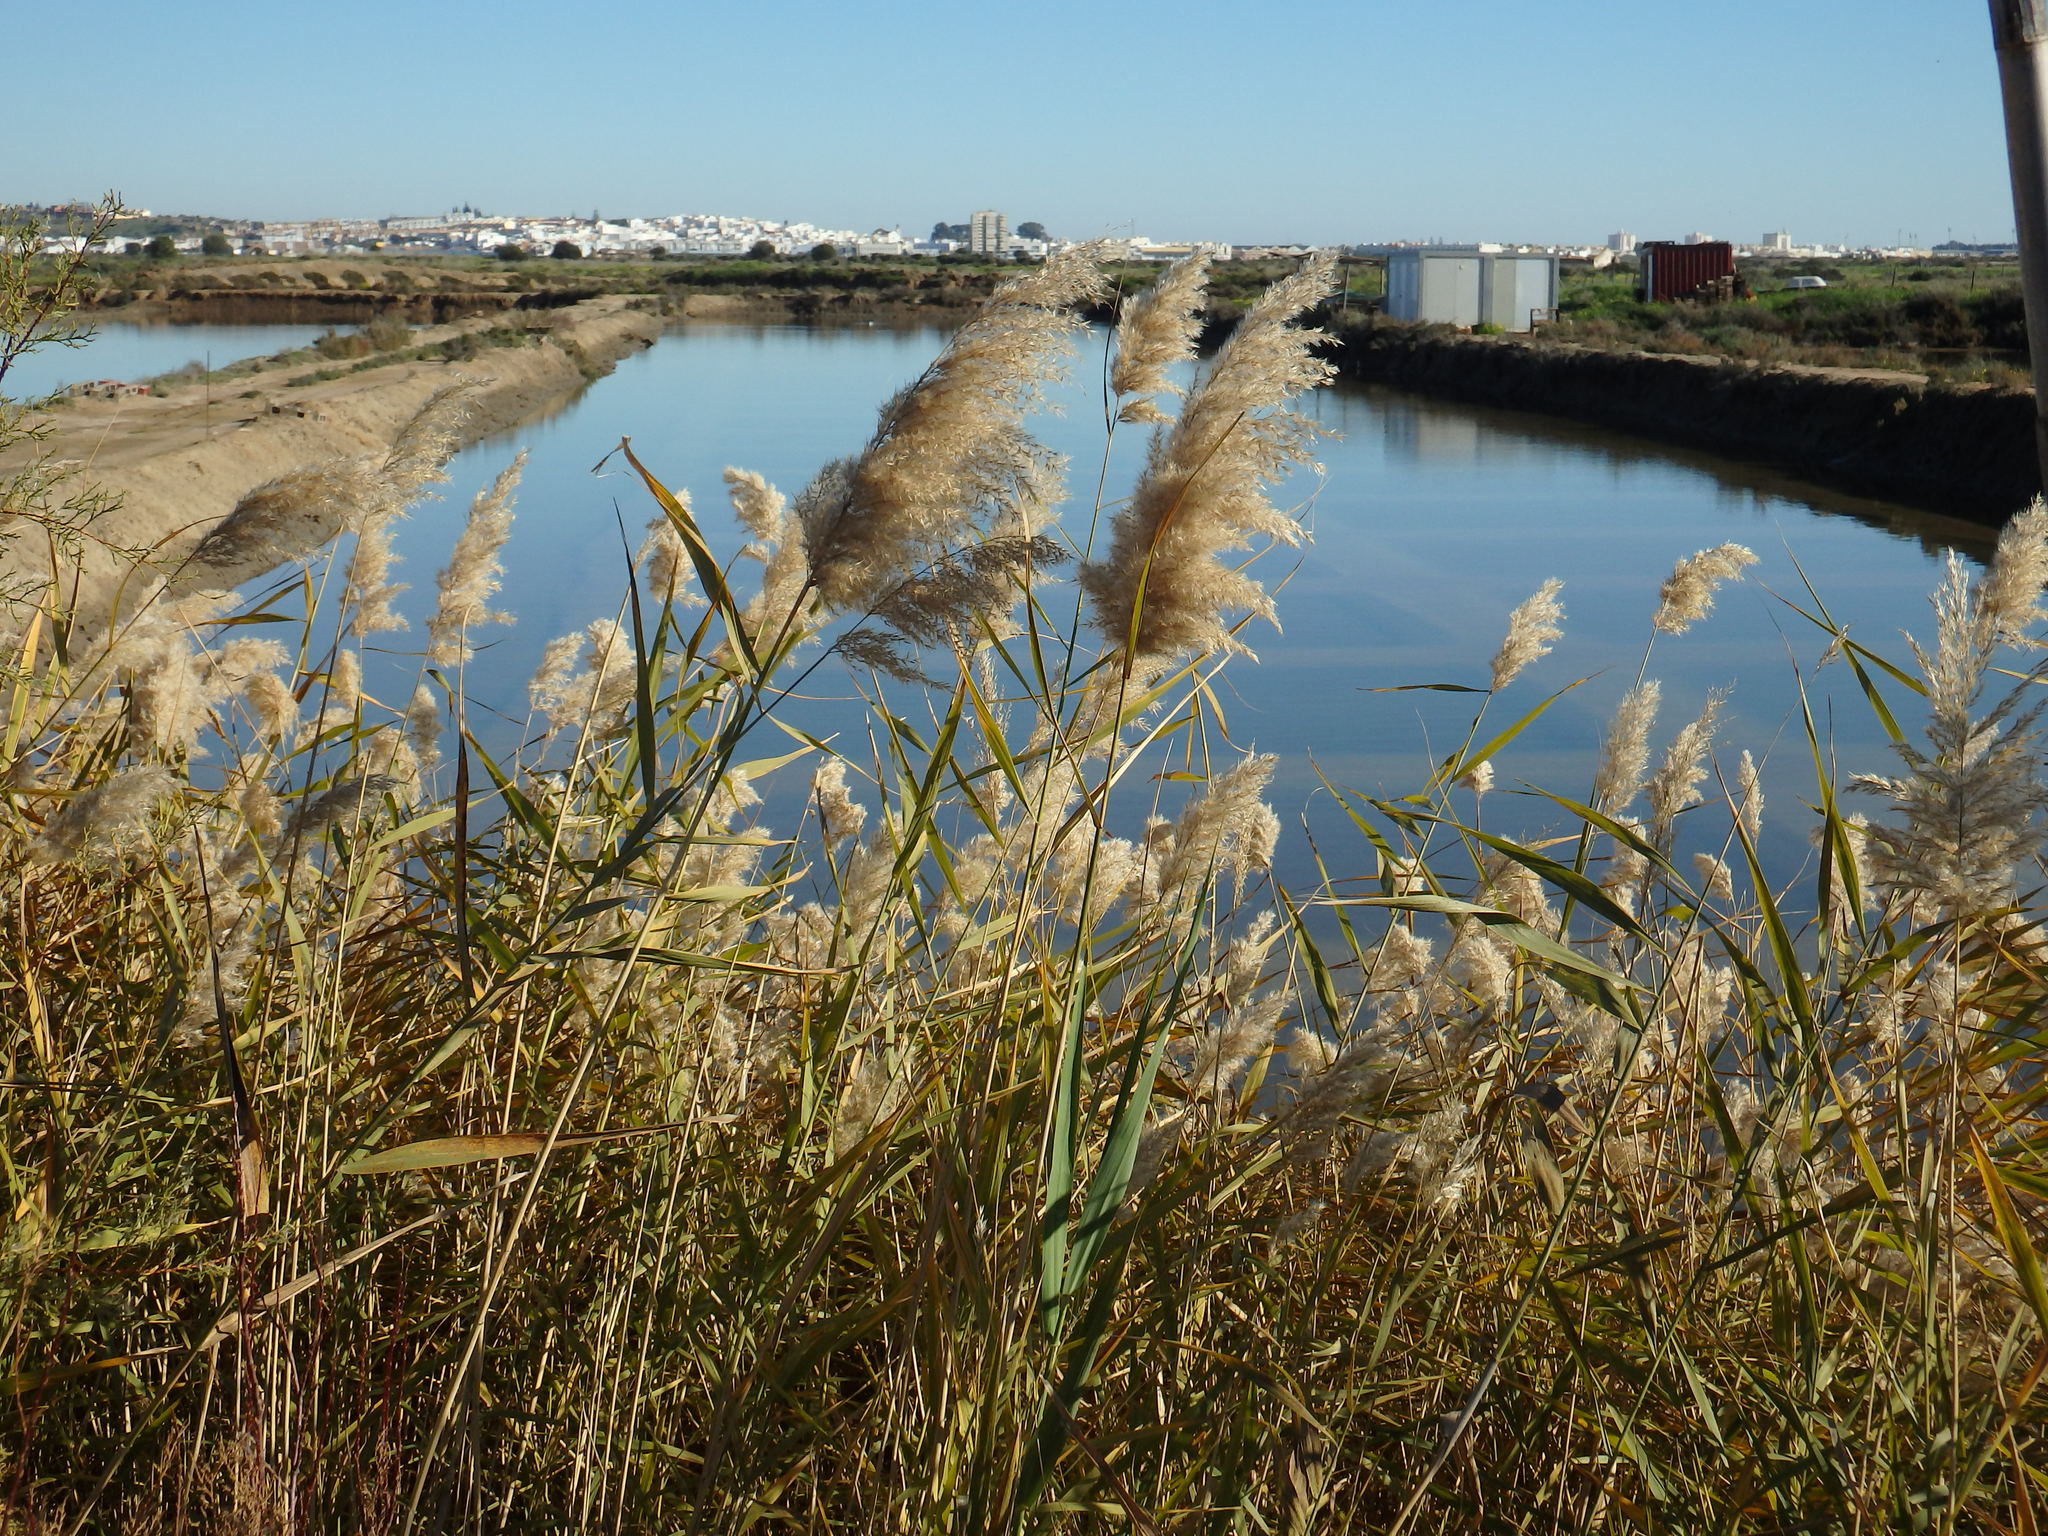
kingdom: Plantae
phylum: Tracheophyta
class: Liliopsida
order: Poales
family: Poaceae
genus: Phragmites
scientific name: Phragmites australis
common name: Common reed
